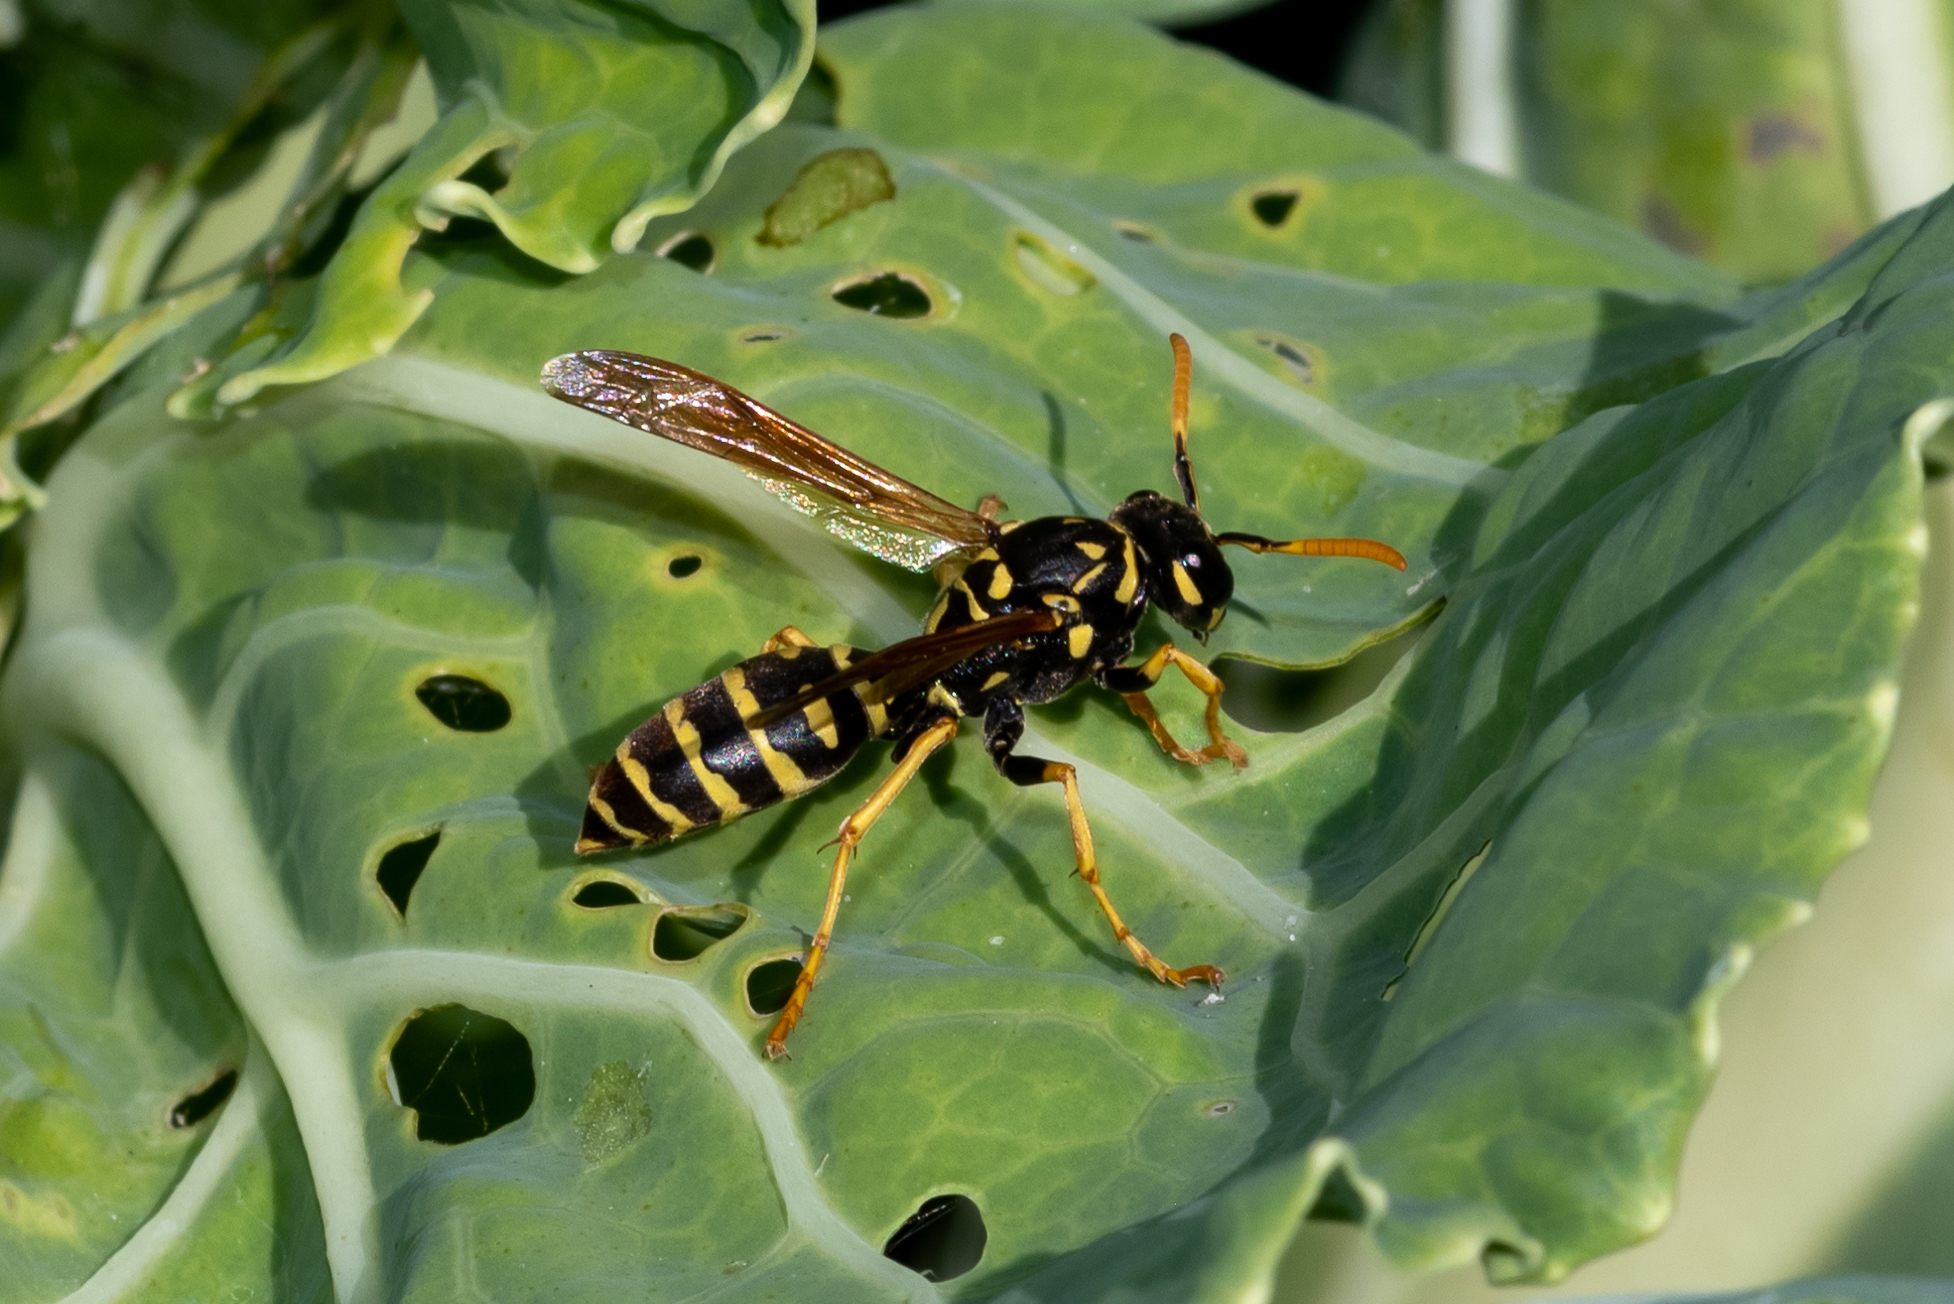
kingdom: Animalia
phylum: Arthropoda
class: Insecta
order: Hymenoptera
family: Eumenidae
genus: Polistes
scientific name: Polistes dominula
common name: Paper wasp
